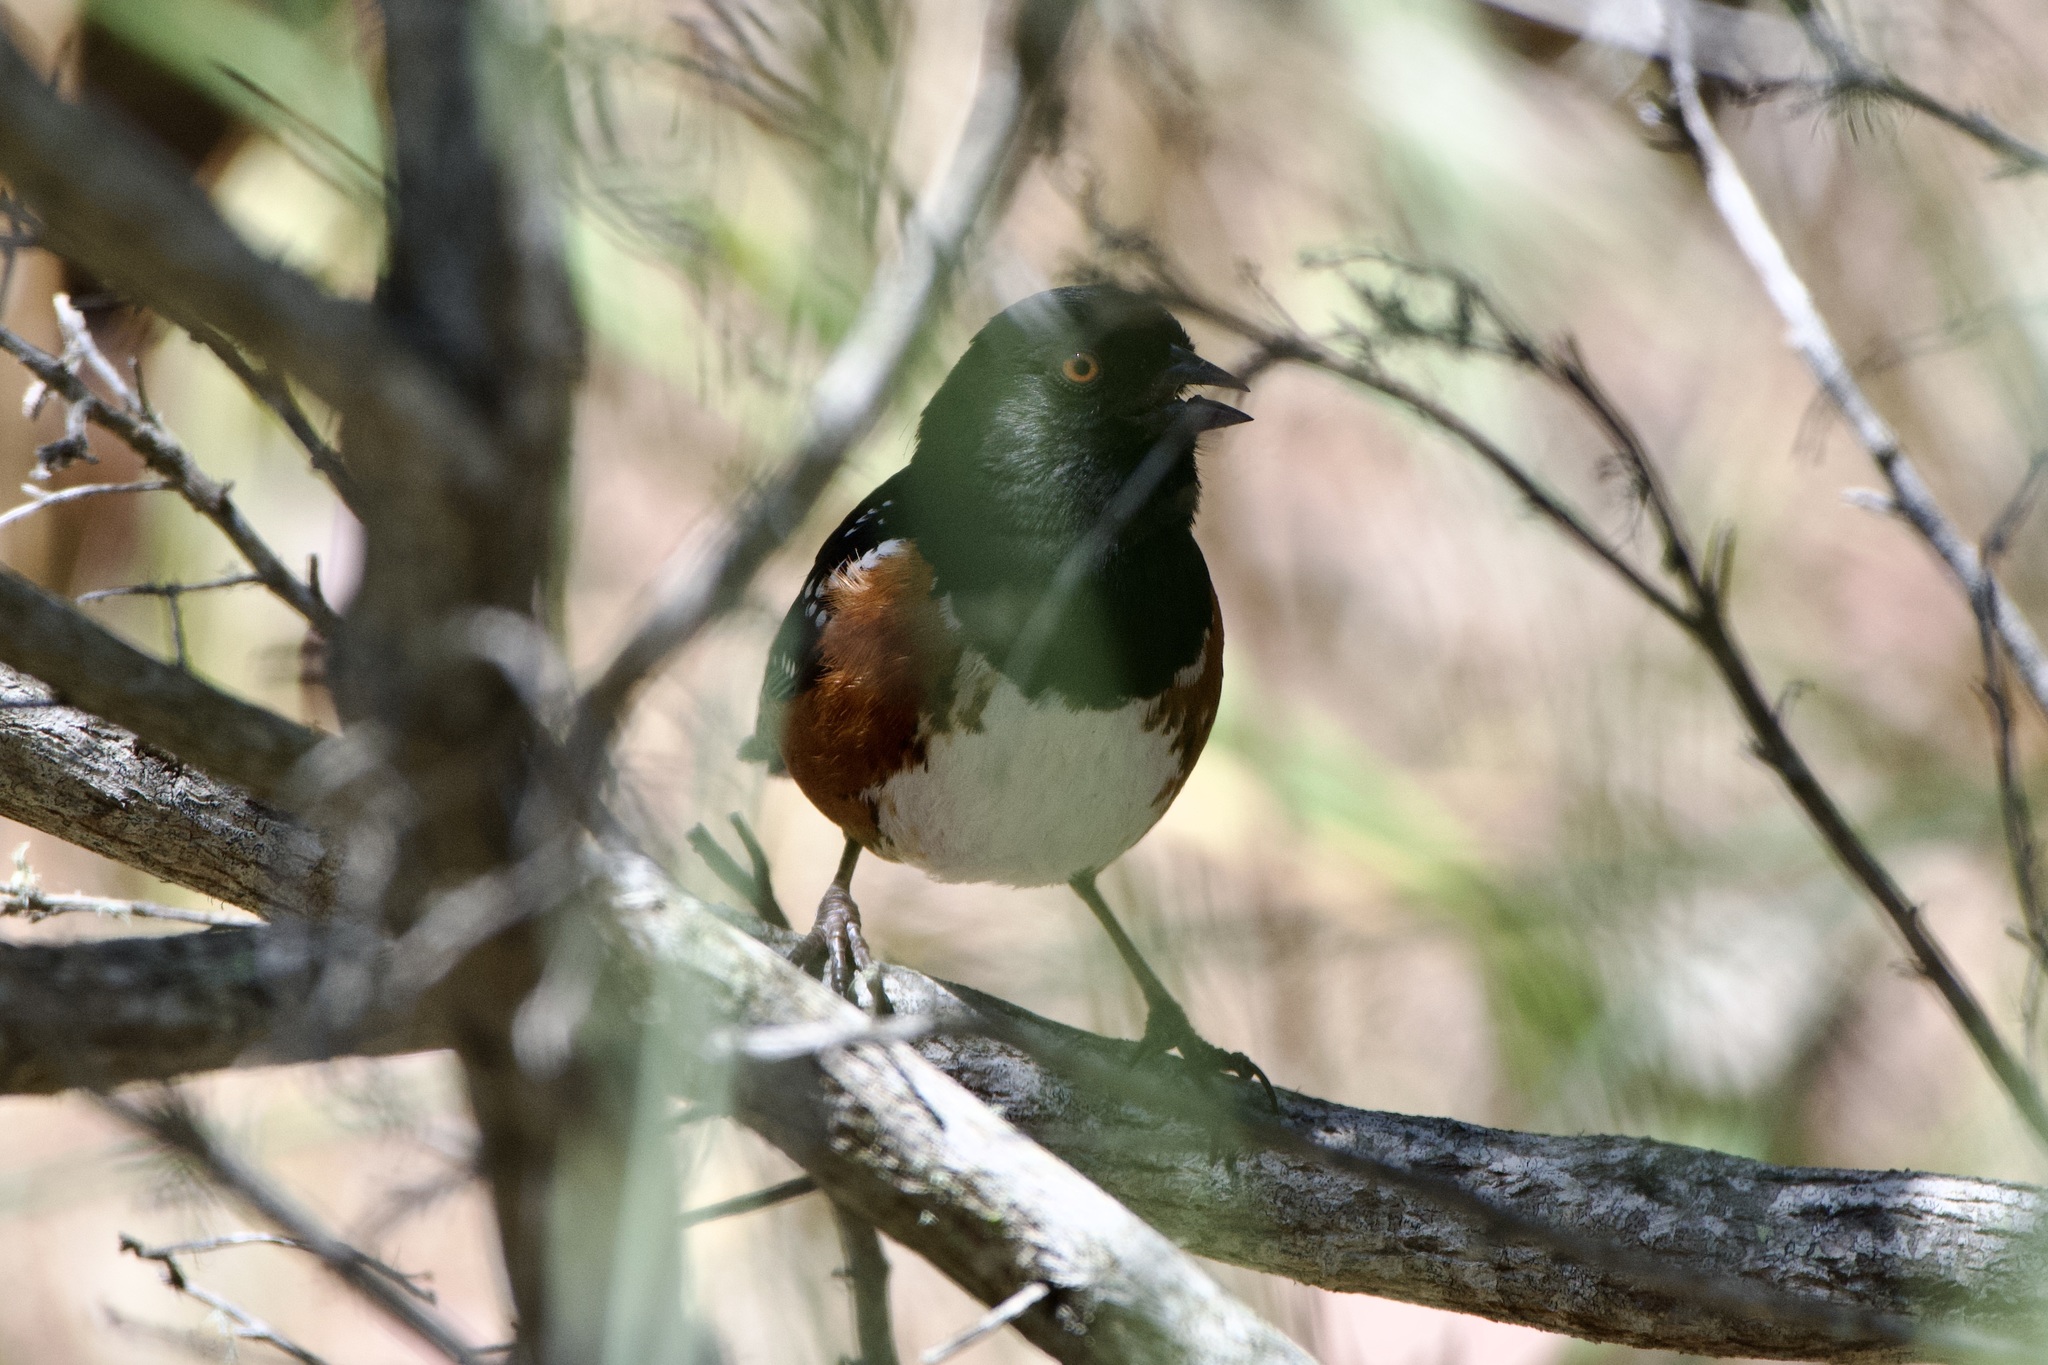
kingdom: Animalia
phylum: Chordata
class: Aves
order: Passeriformes
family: Passerellidae
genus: Pipilo
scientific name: Pipilo maculatus
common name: Spotted towhee
